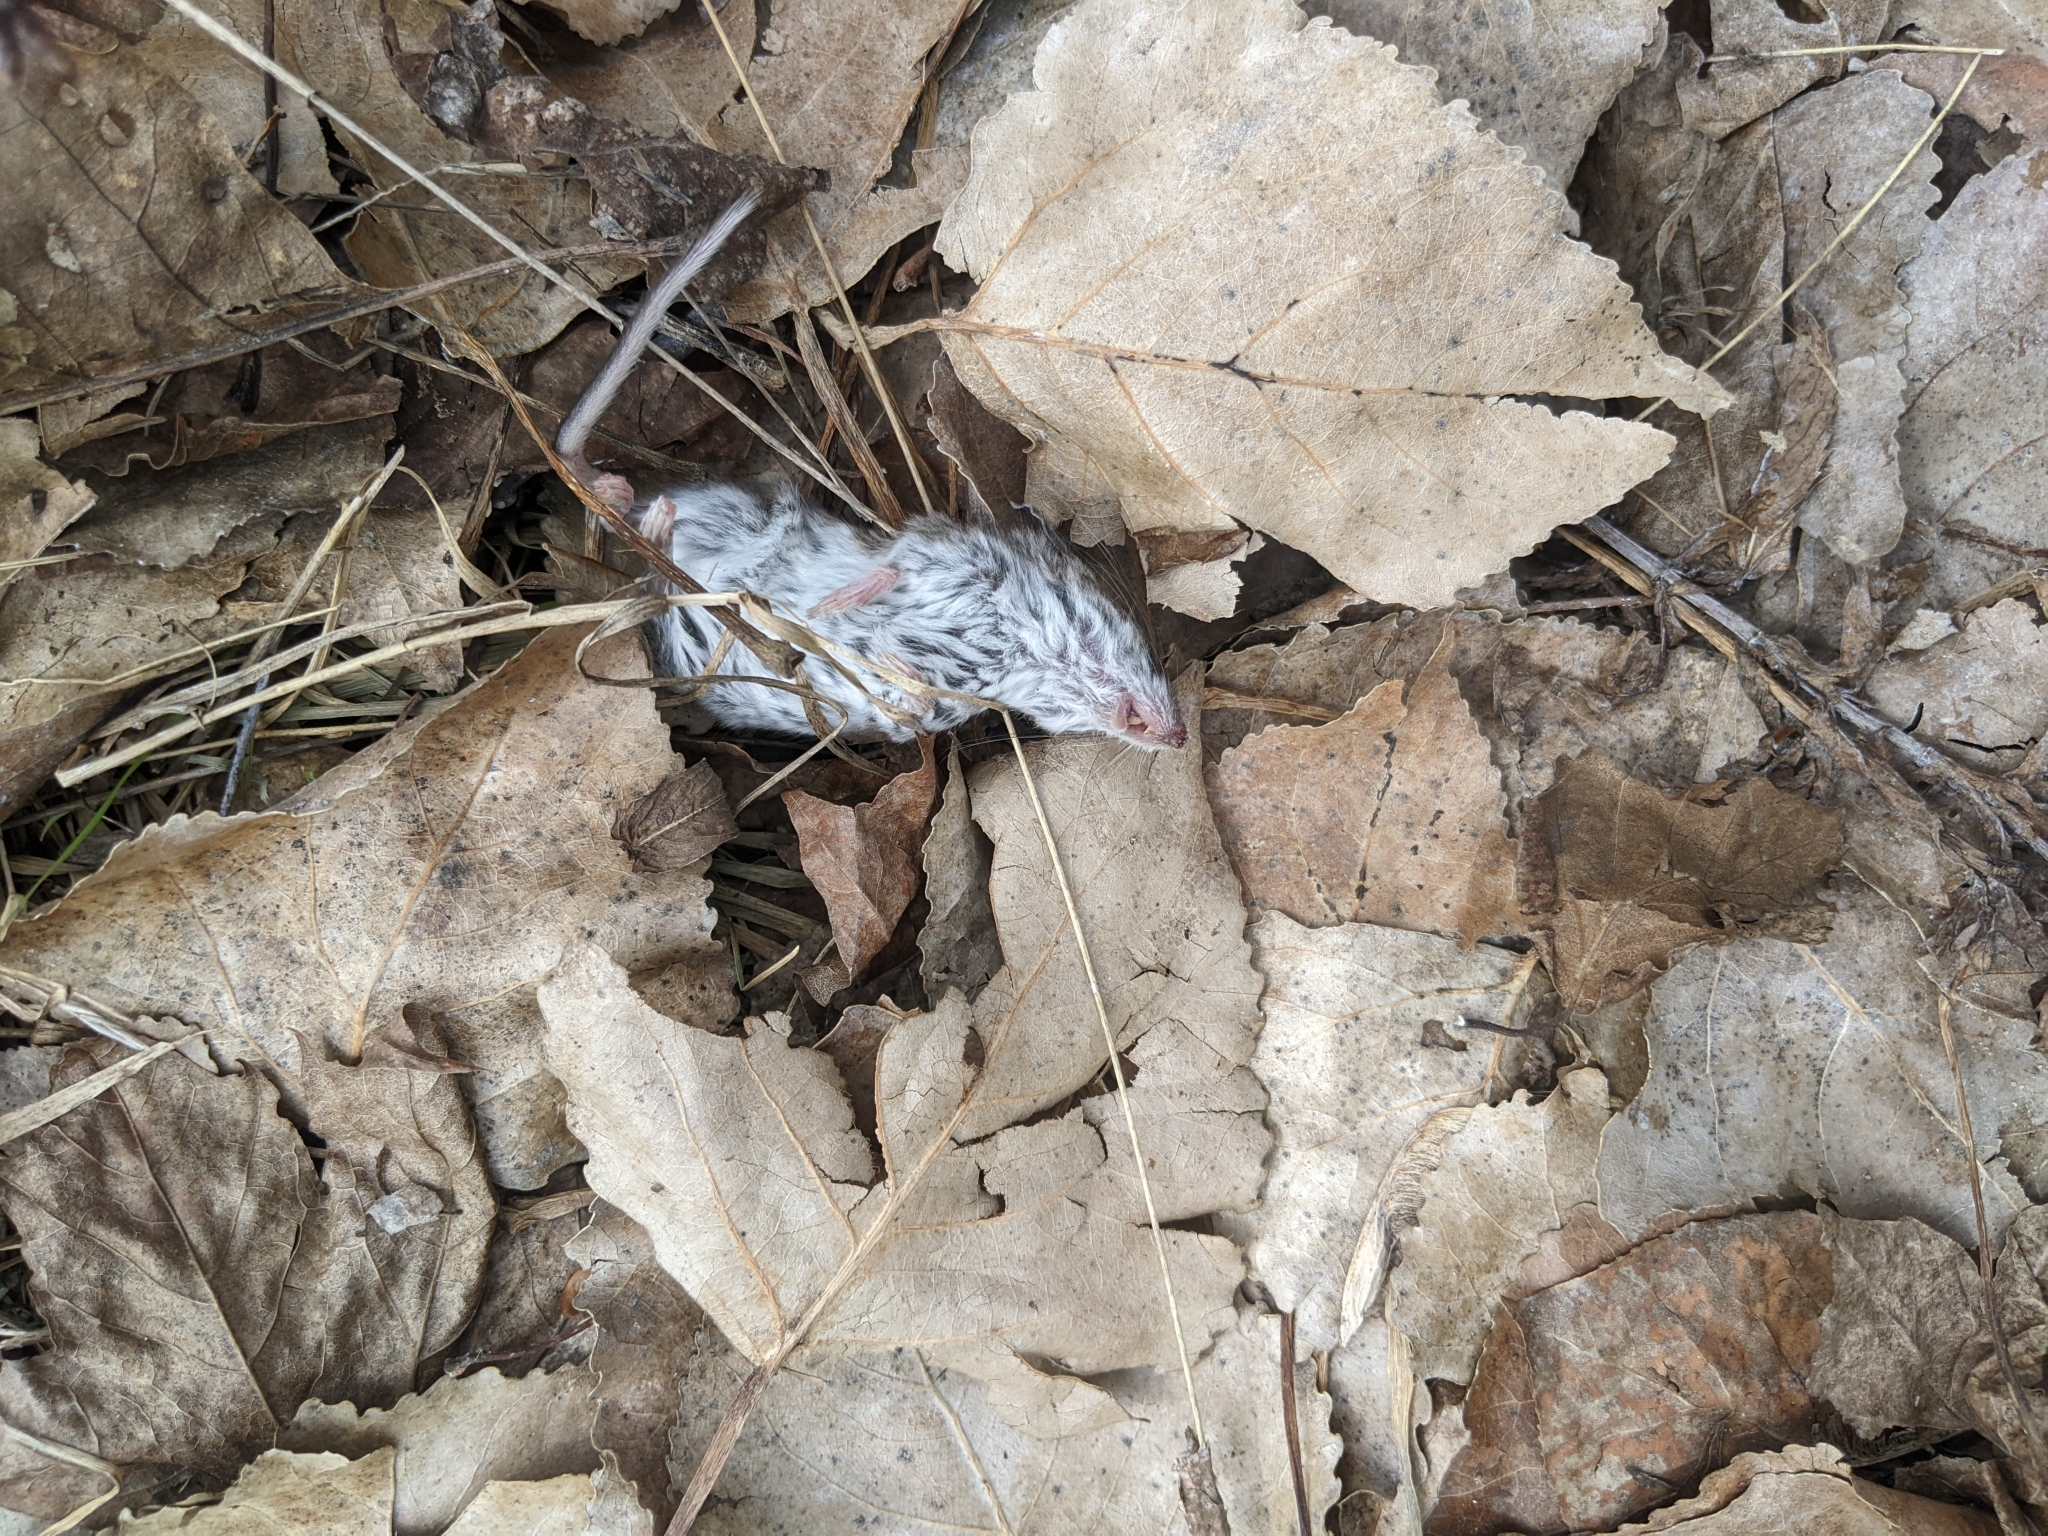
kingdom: Animalia
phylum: Chordata
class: Mammalia
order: Rodentia
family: Cricetidae
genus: Peromyscus
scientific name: Peromyscus maniculatus
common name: Deer mouse
